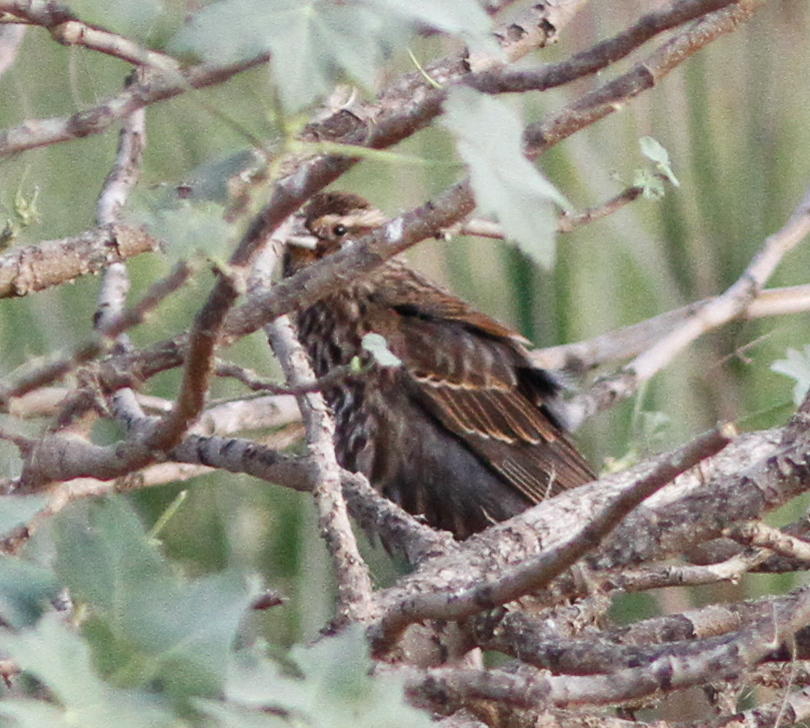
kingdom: Animalia
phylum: Chordata
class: Aves
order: Passeriformes
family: Icteridae
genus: Agelaius
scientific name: Agelaius phoeniceus
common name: Red-winged blackbird
